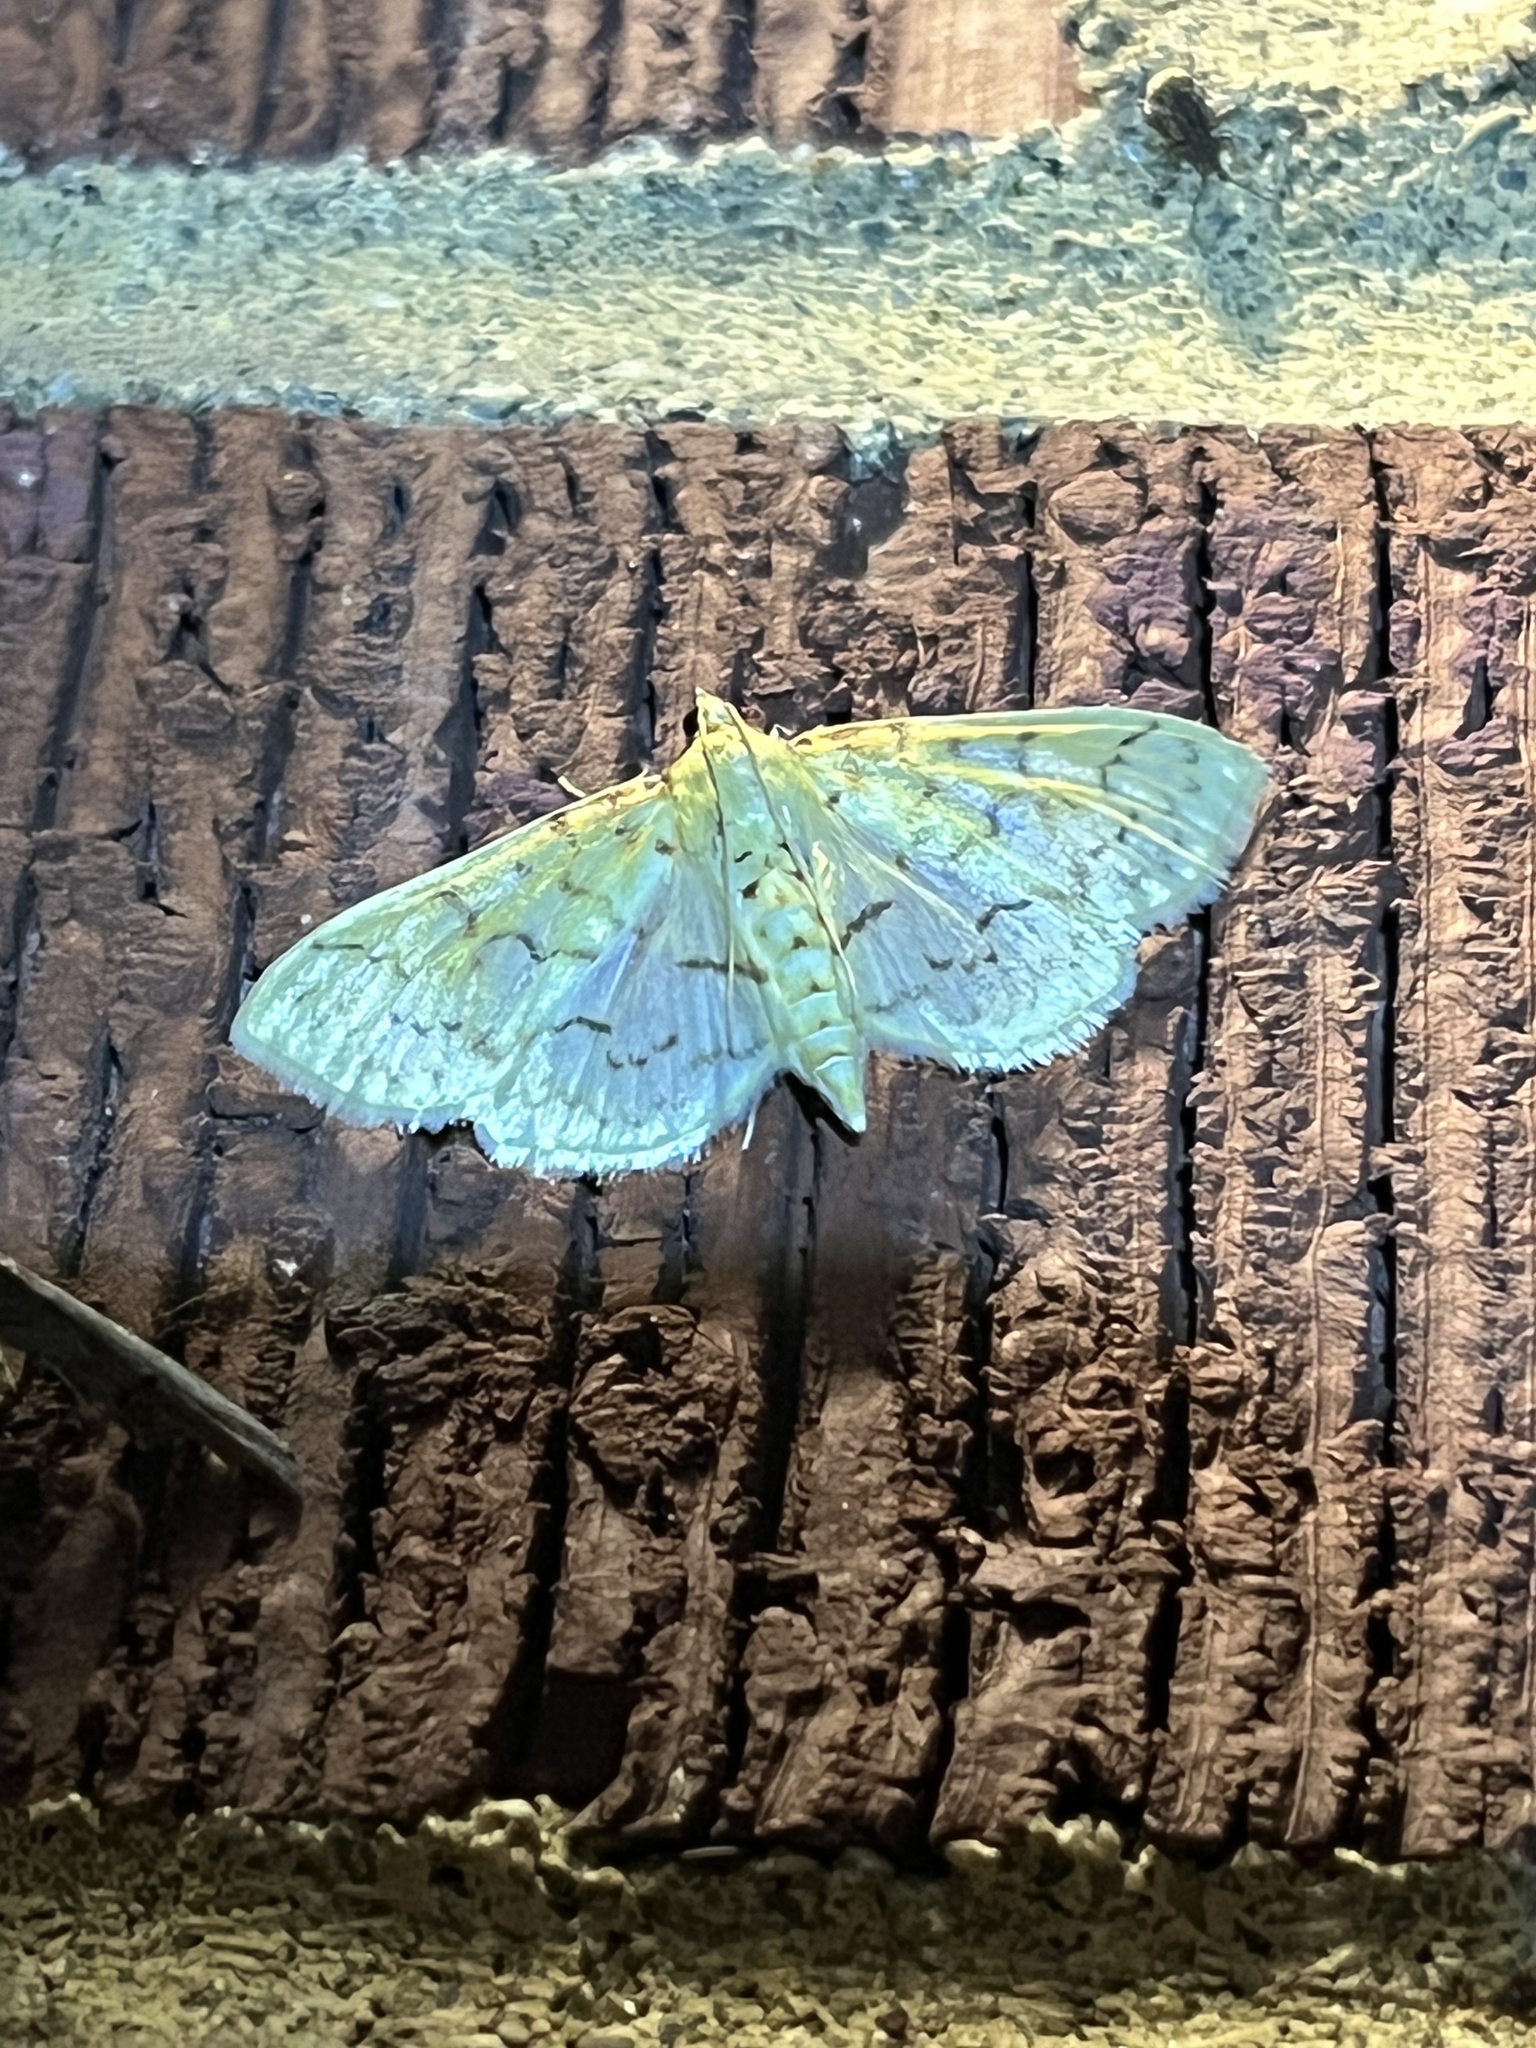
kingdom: Animalia
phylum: Arthropoda
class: Insecta
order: Lepidoptera
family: Crambidae
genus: Polygrammodes
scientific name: Polygrammodes flavidalis
